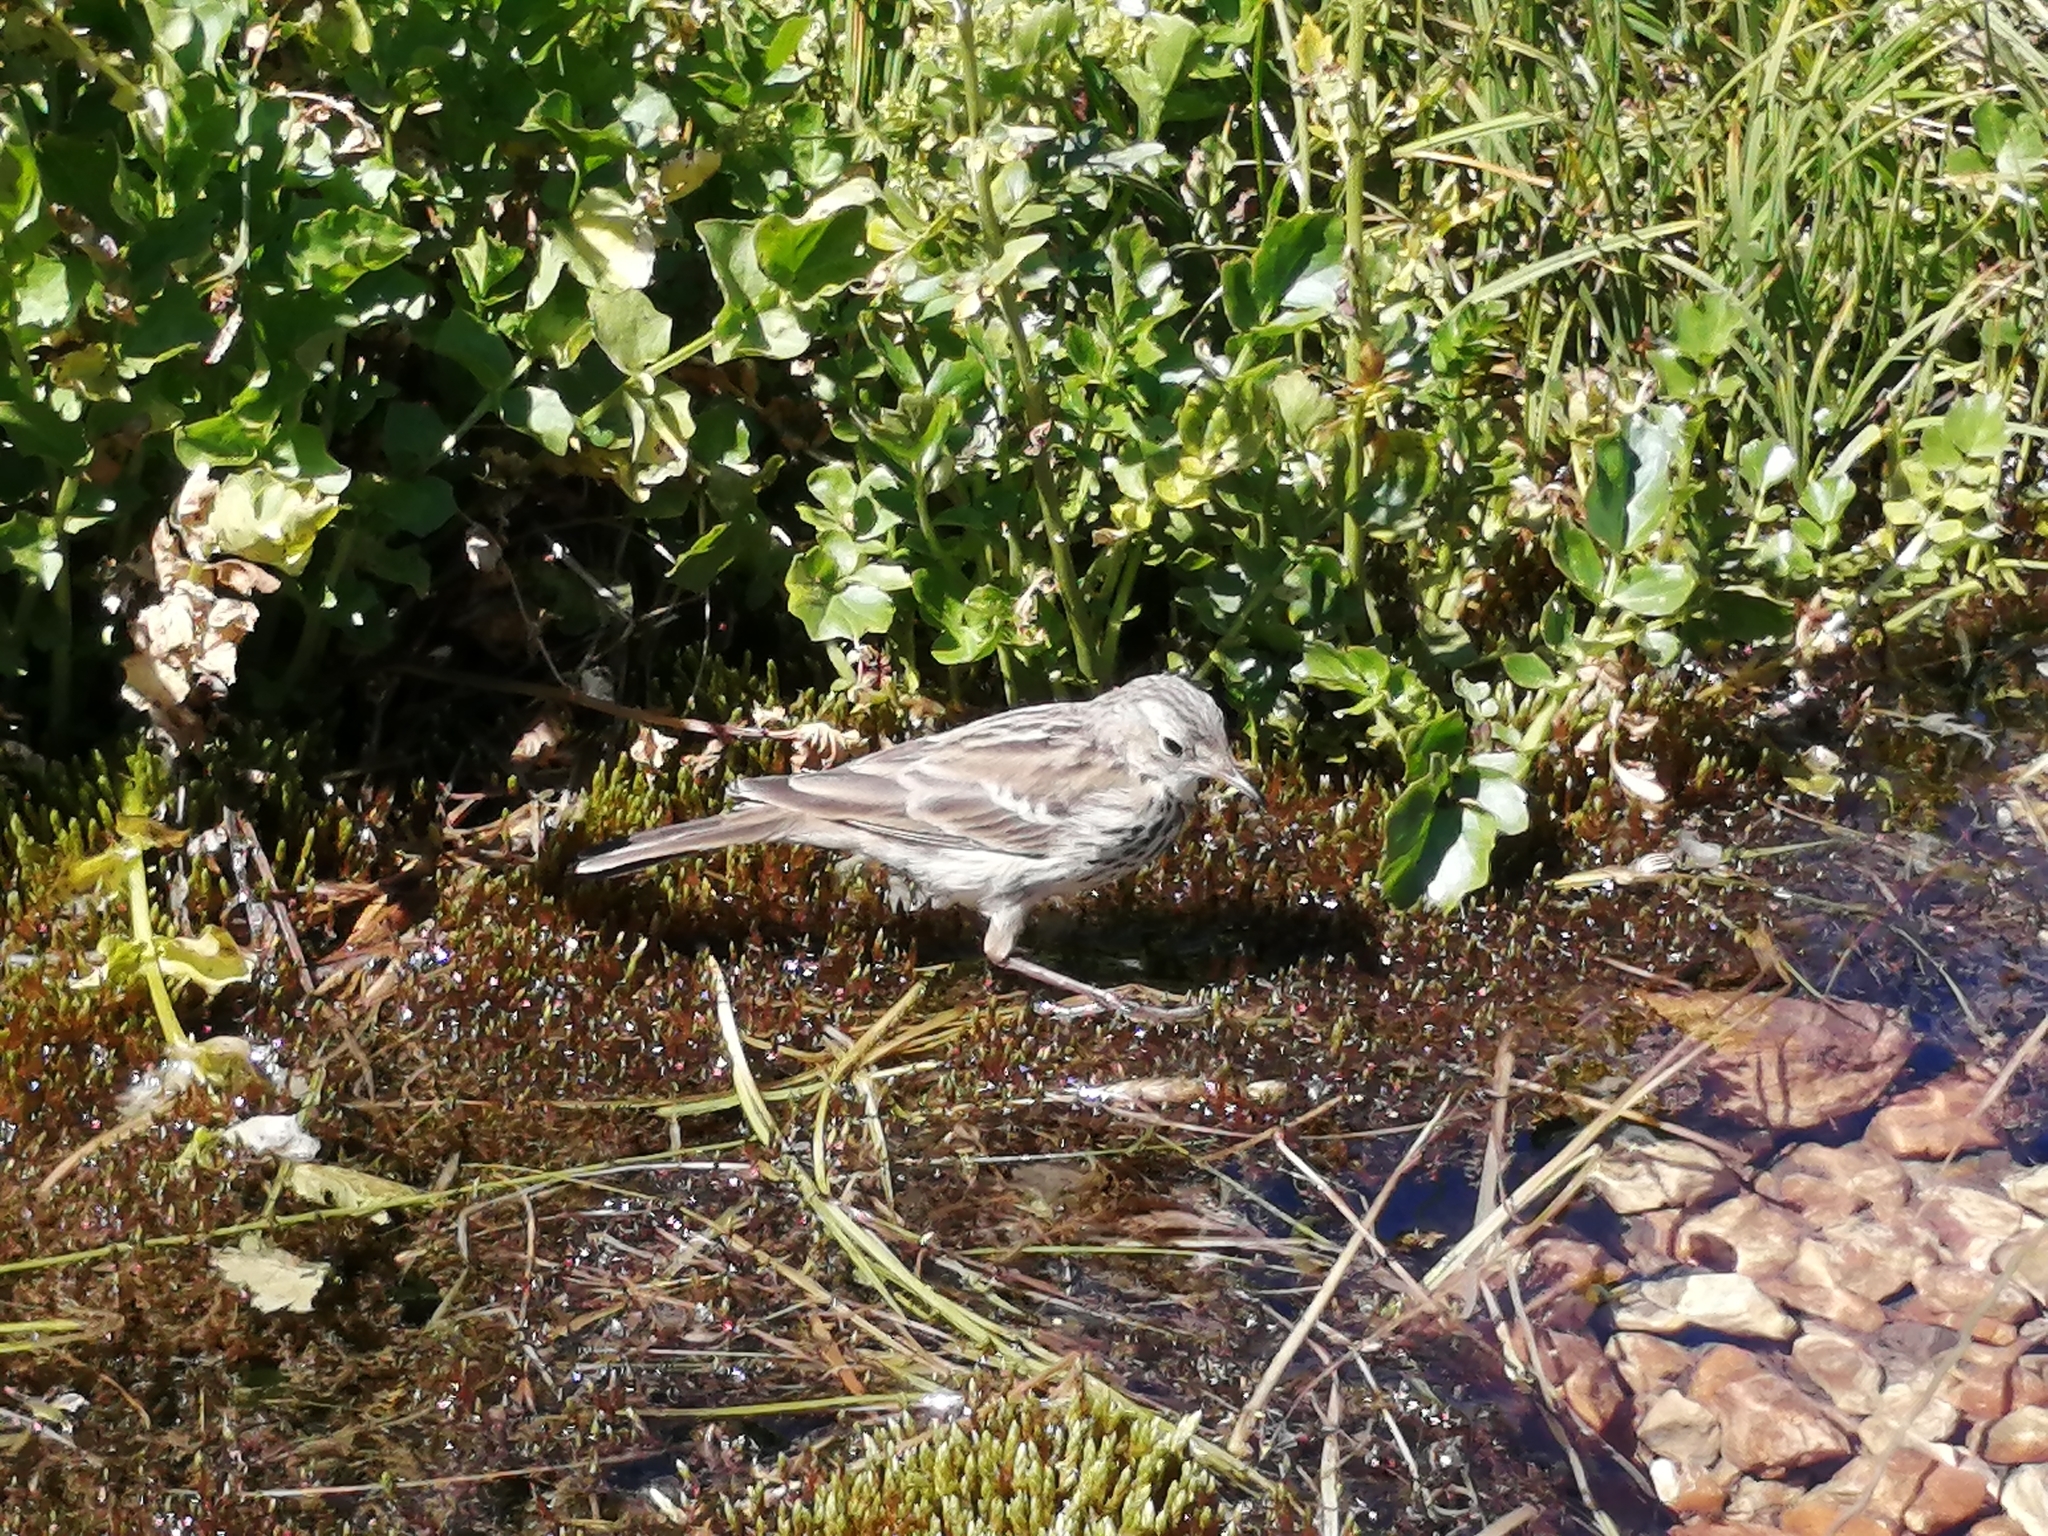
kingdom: Animalia
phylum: Chordata
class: Aves
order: Passeriformes
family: Motacillidae
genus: Anthus
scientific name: Anthus spinoletta
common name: Water pipit
